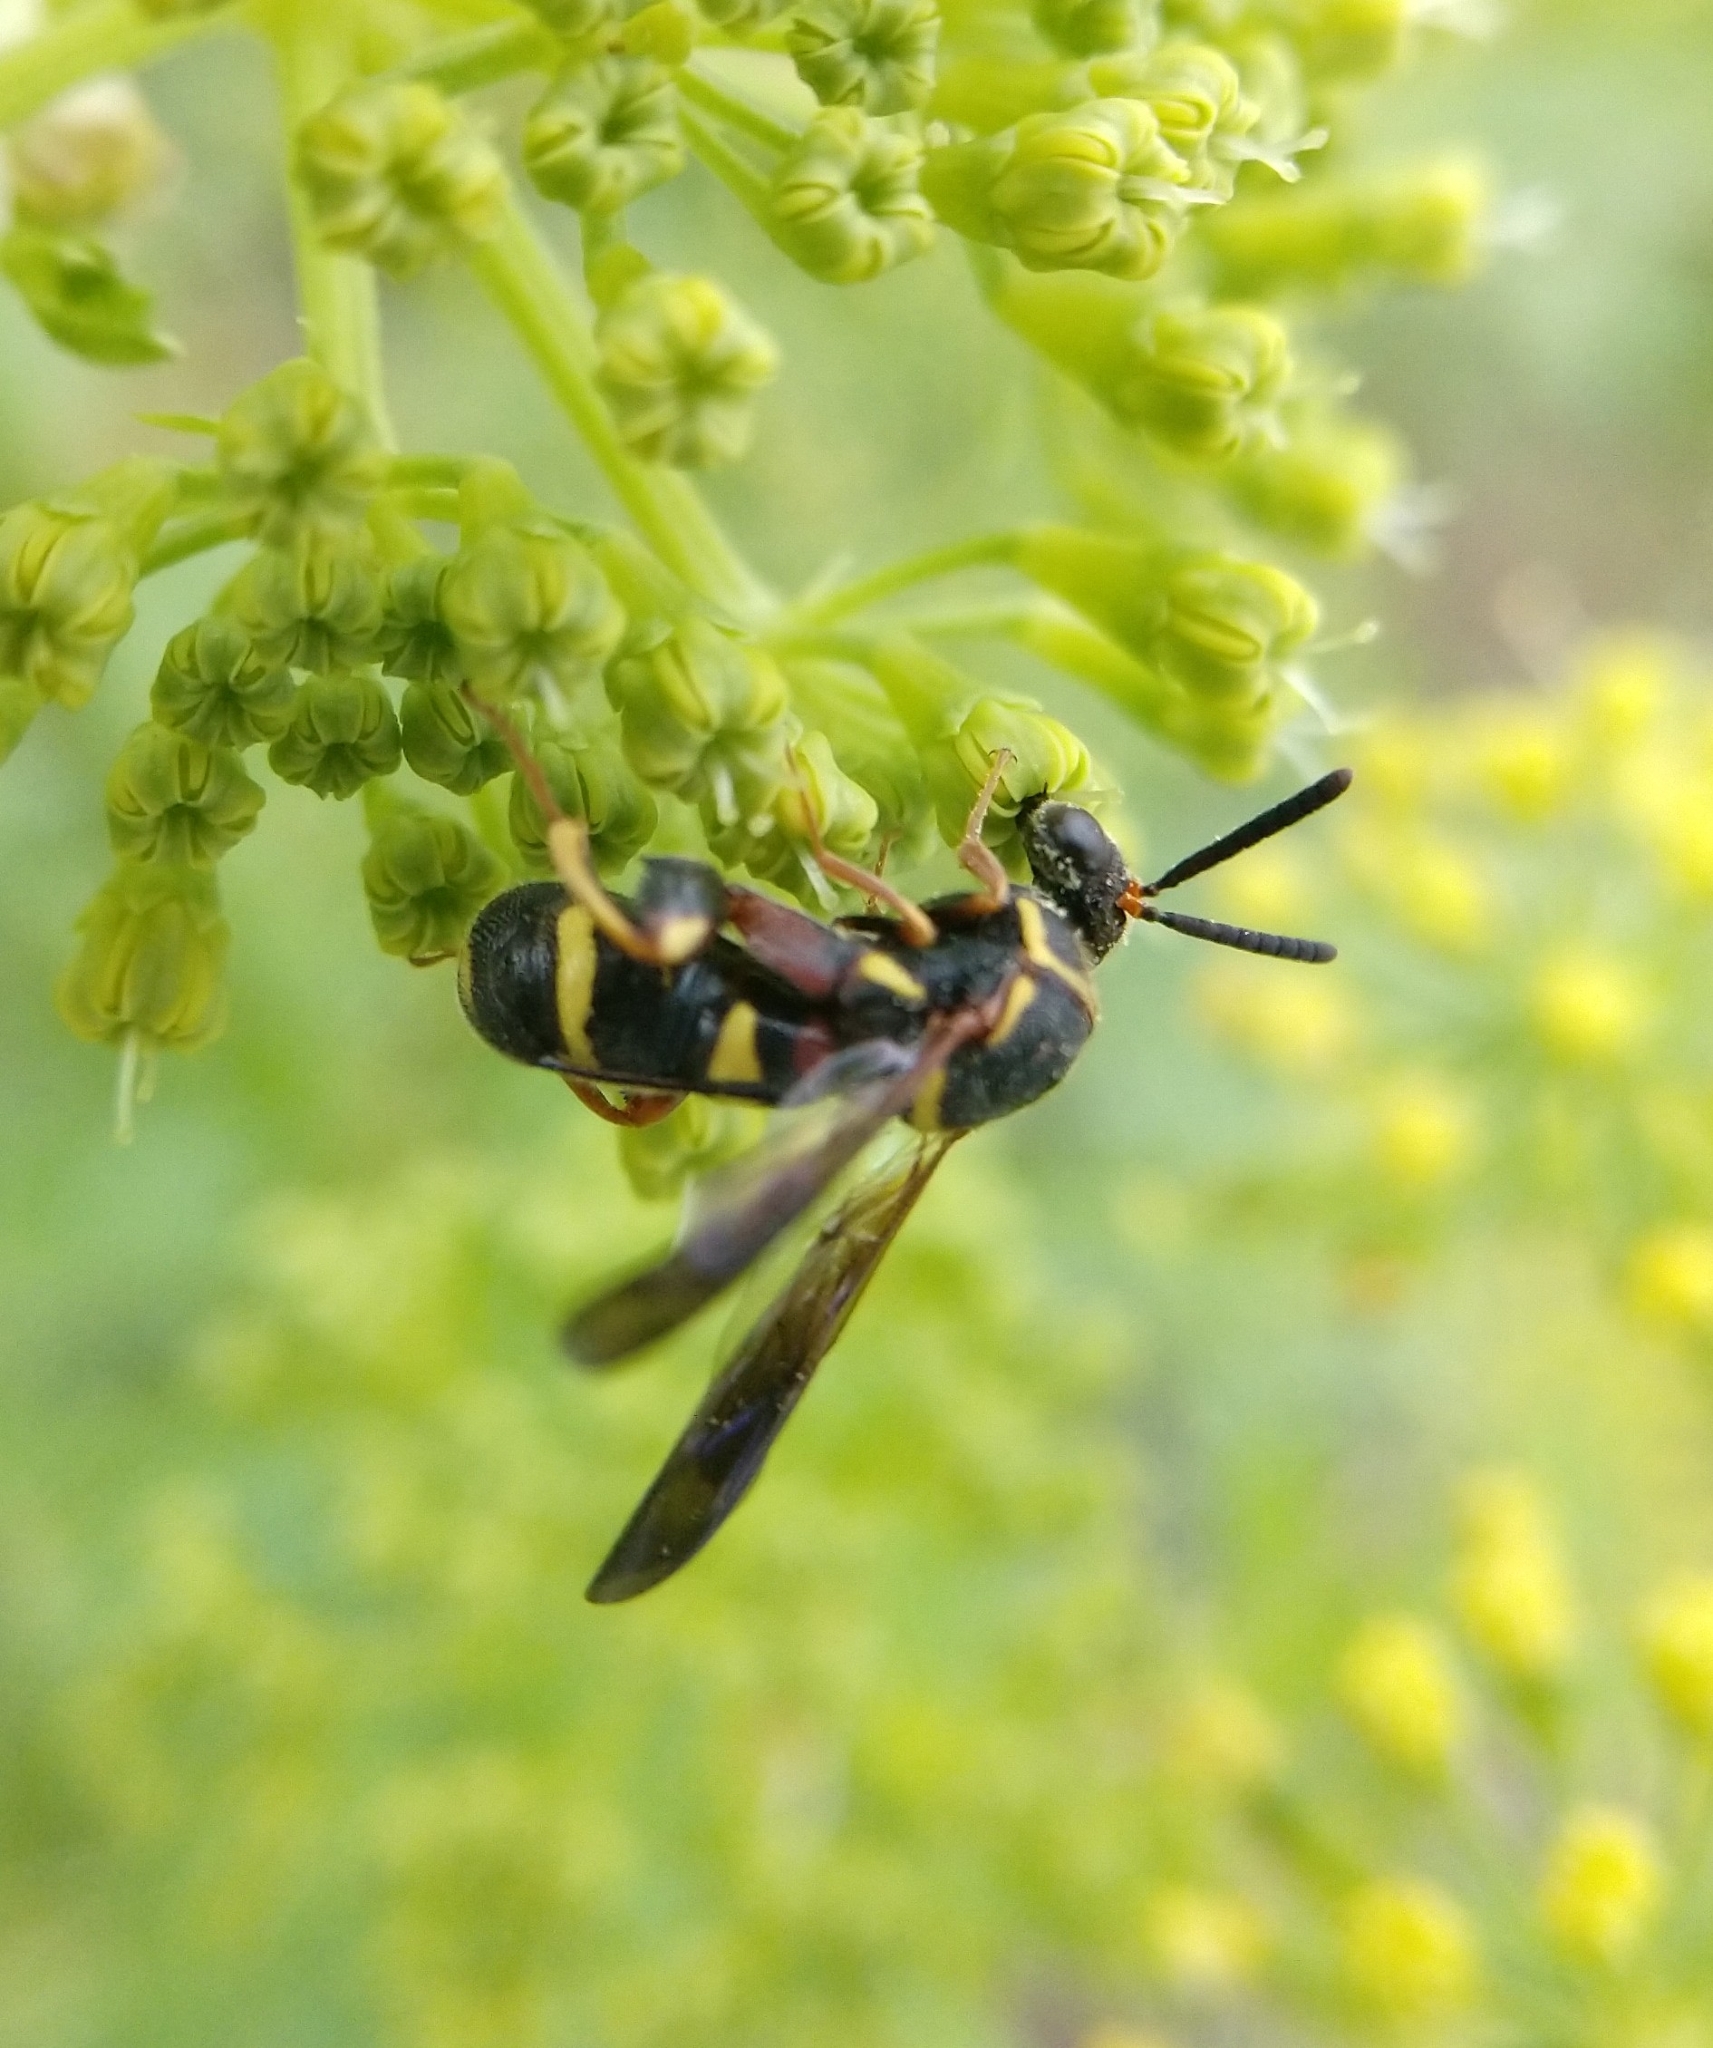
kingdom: Animalia
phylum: Arthropoda
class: Insecta
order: Hymenoptera
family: Leucospidae
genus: Leucospis
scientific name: Leucospis affinis
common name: Wasp
